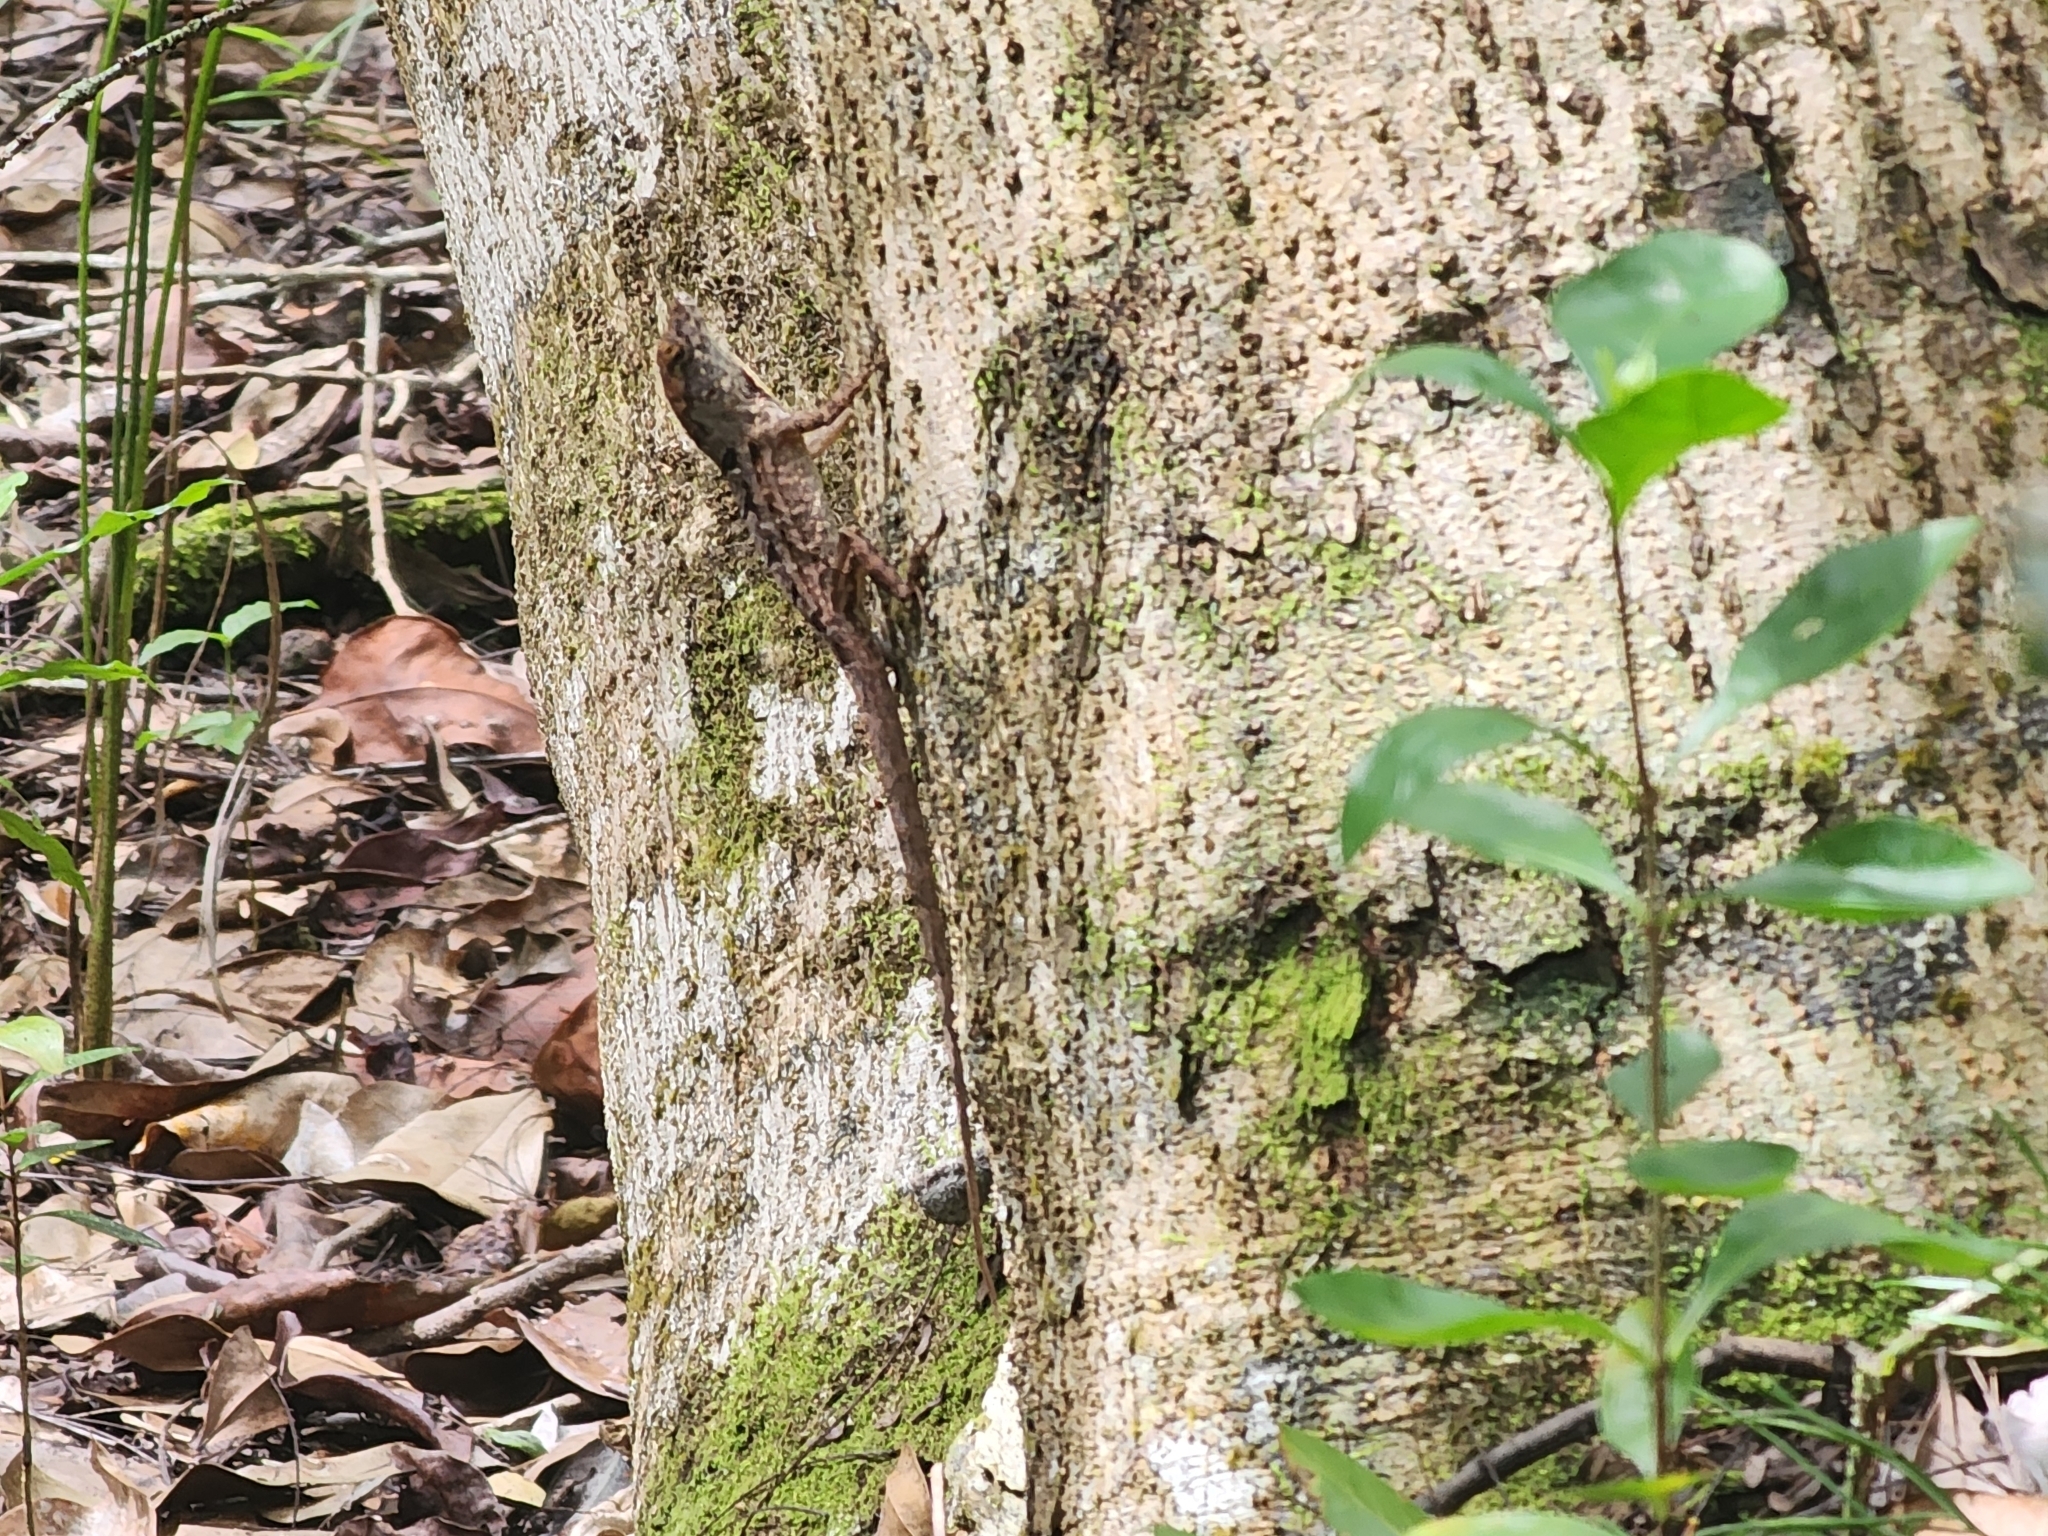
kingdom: Animalia
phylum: Chordata
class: Squamata
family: Dactyloidae
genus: Anolis
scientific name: Anolis sagrei
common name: Brown anole
